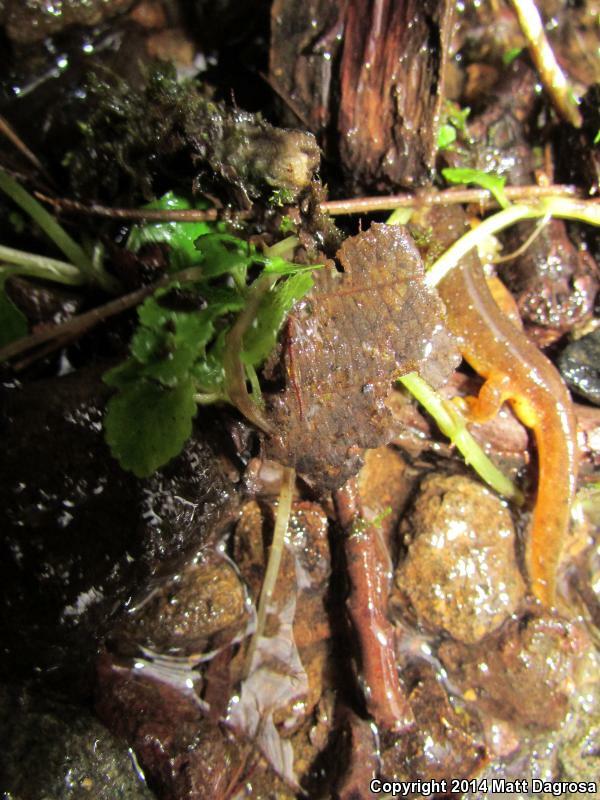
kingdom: Animalia
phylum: Chordata
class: Amphibia
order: Caudata
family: Rhyacotritonidae
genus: Rhyacotriton
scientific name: Rhyacotriton kezeri
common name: Columbia torrent salamander
